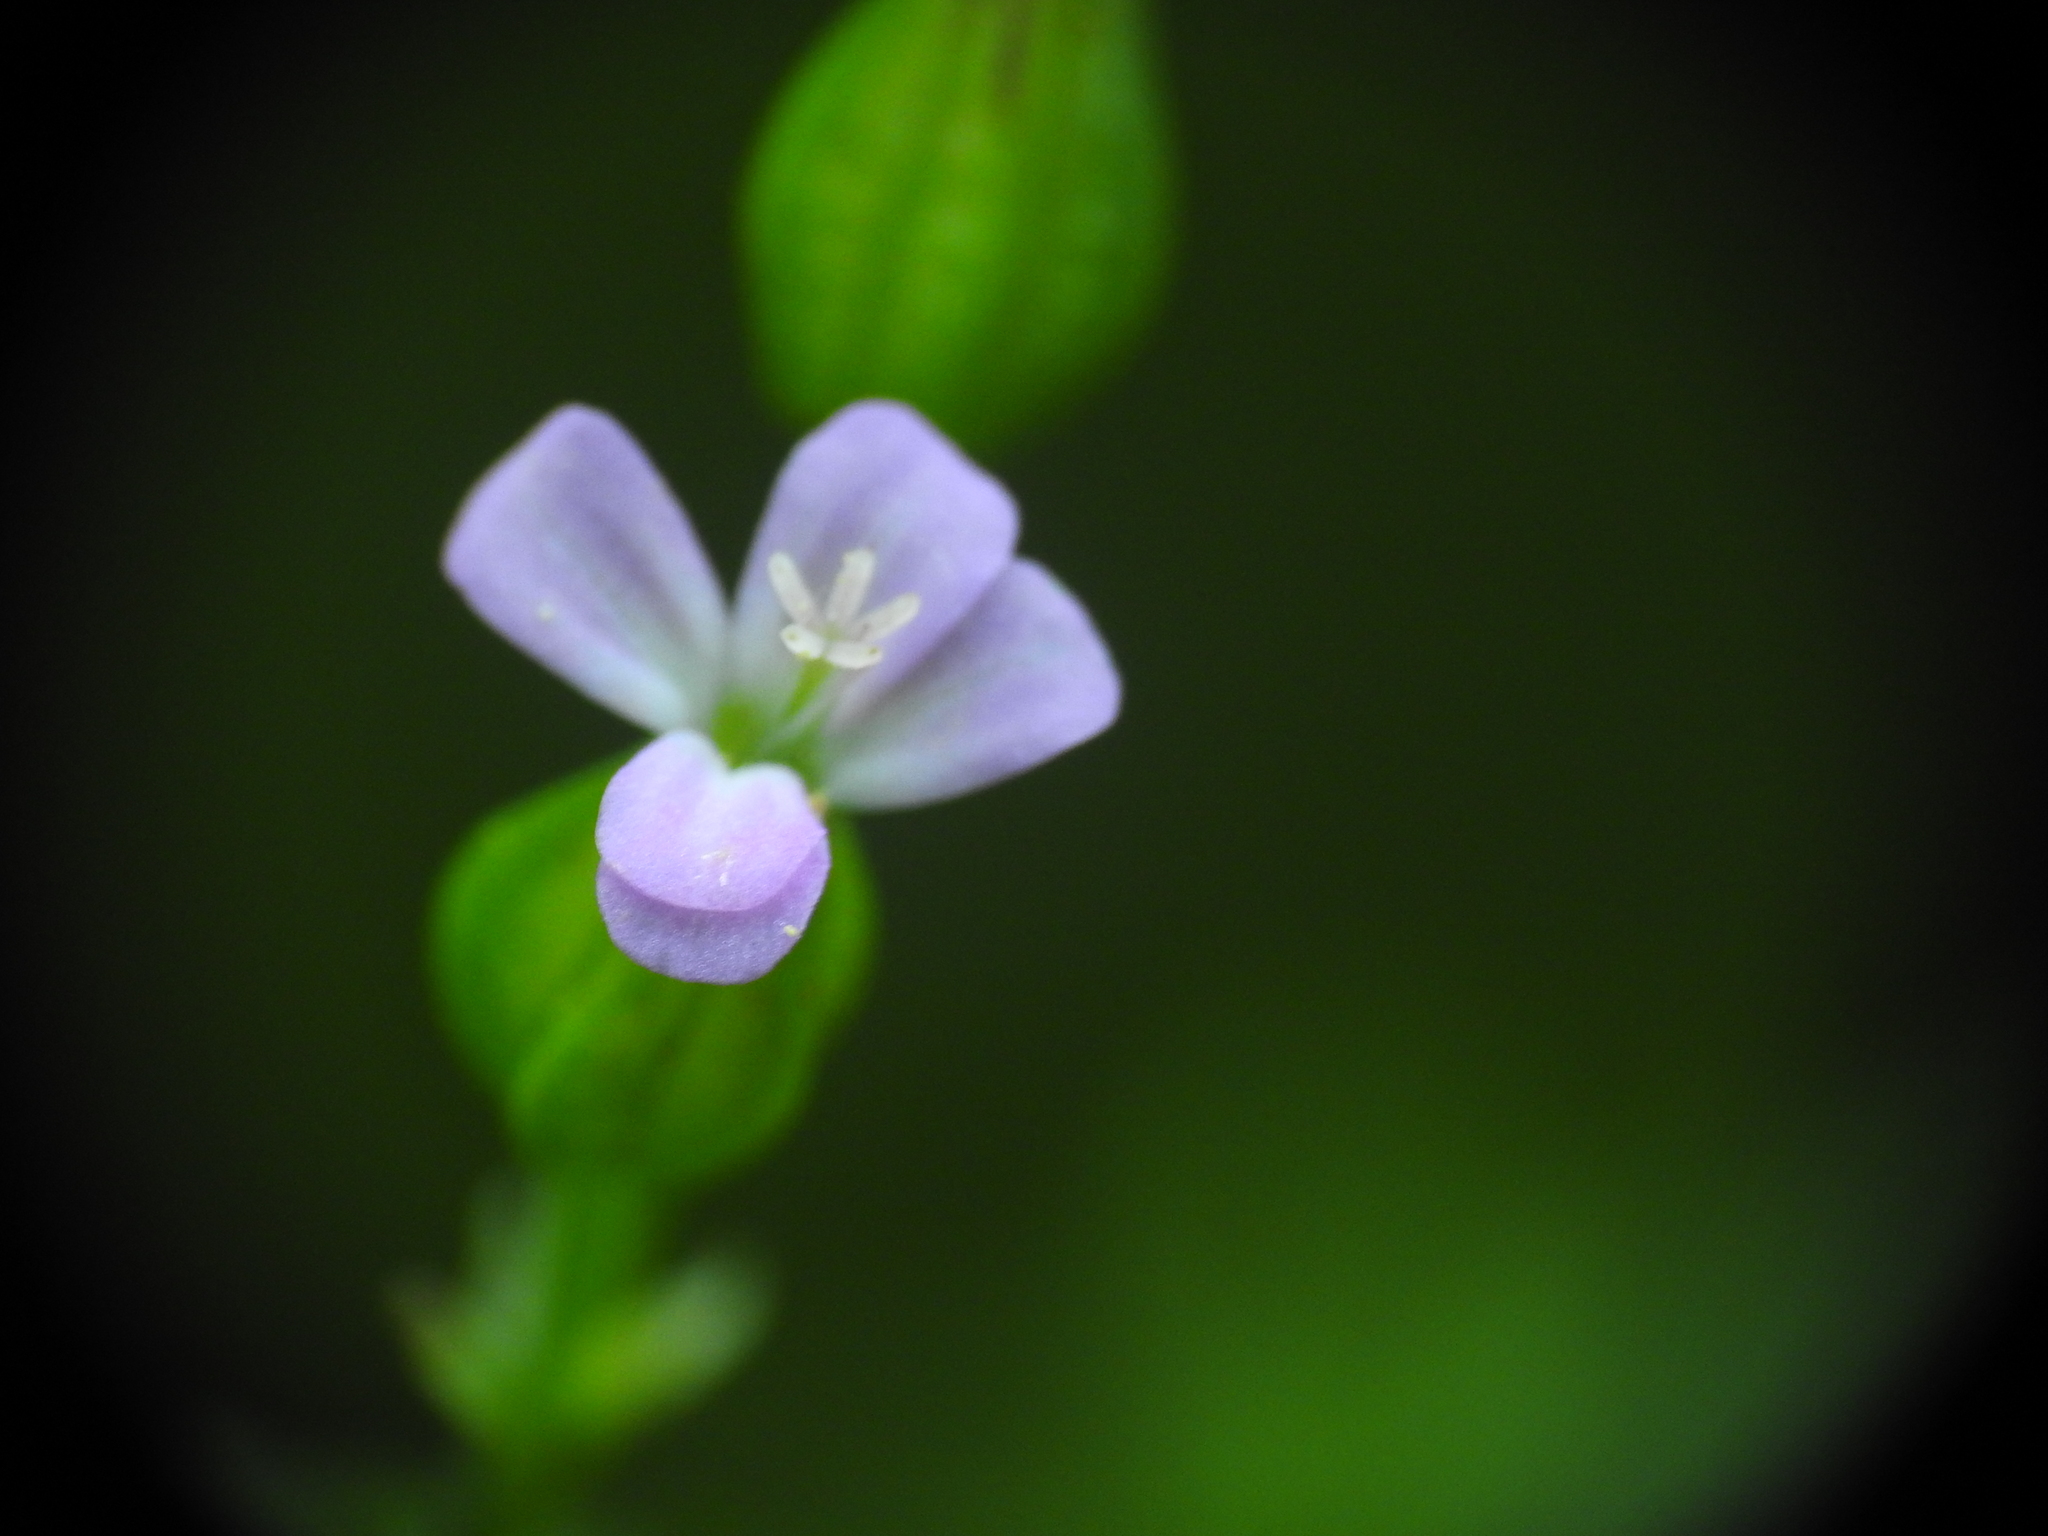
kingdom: Plantae
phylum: Tracheophyta
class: Magnoliopsida
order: Geraniales
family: Geraniaceae
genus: Geranium
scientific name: Geranium lucidum
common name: Shining crane's-bill
